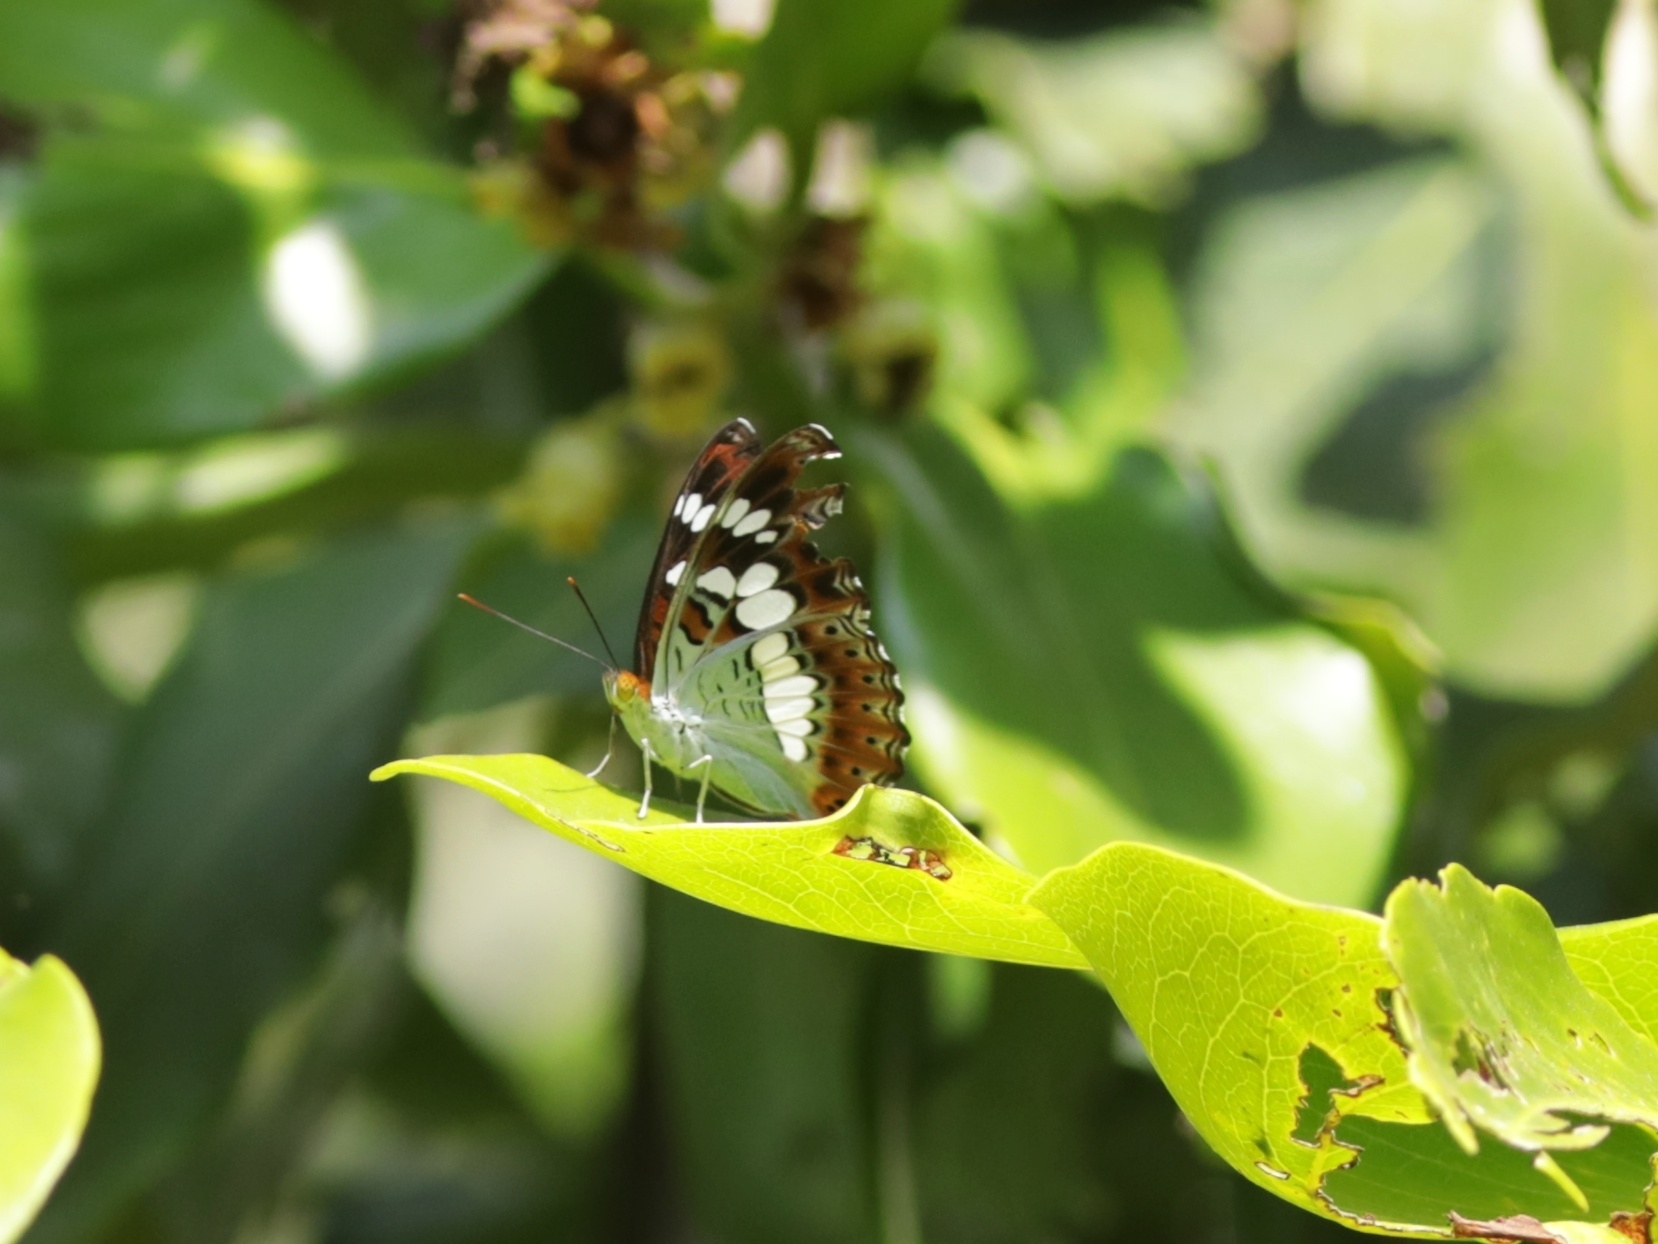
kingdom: Animalia
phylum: Arthropoda
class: Insecta
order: Lepidoptera
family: Nymphalidae
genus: Limenitis
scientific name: Limenitis Moduza procris
